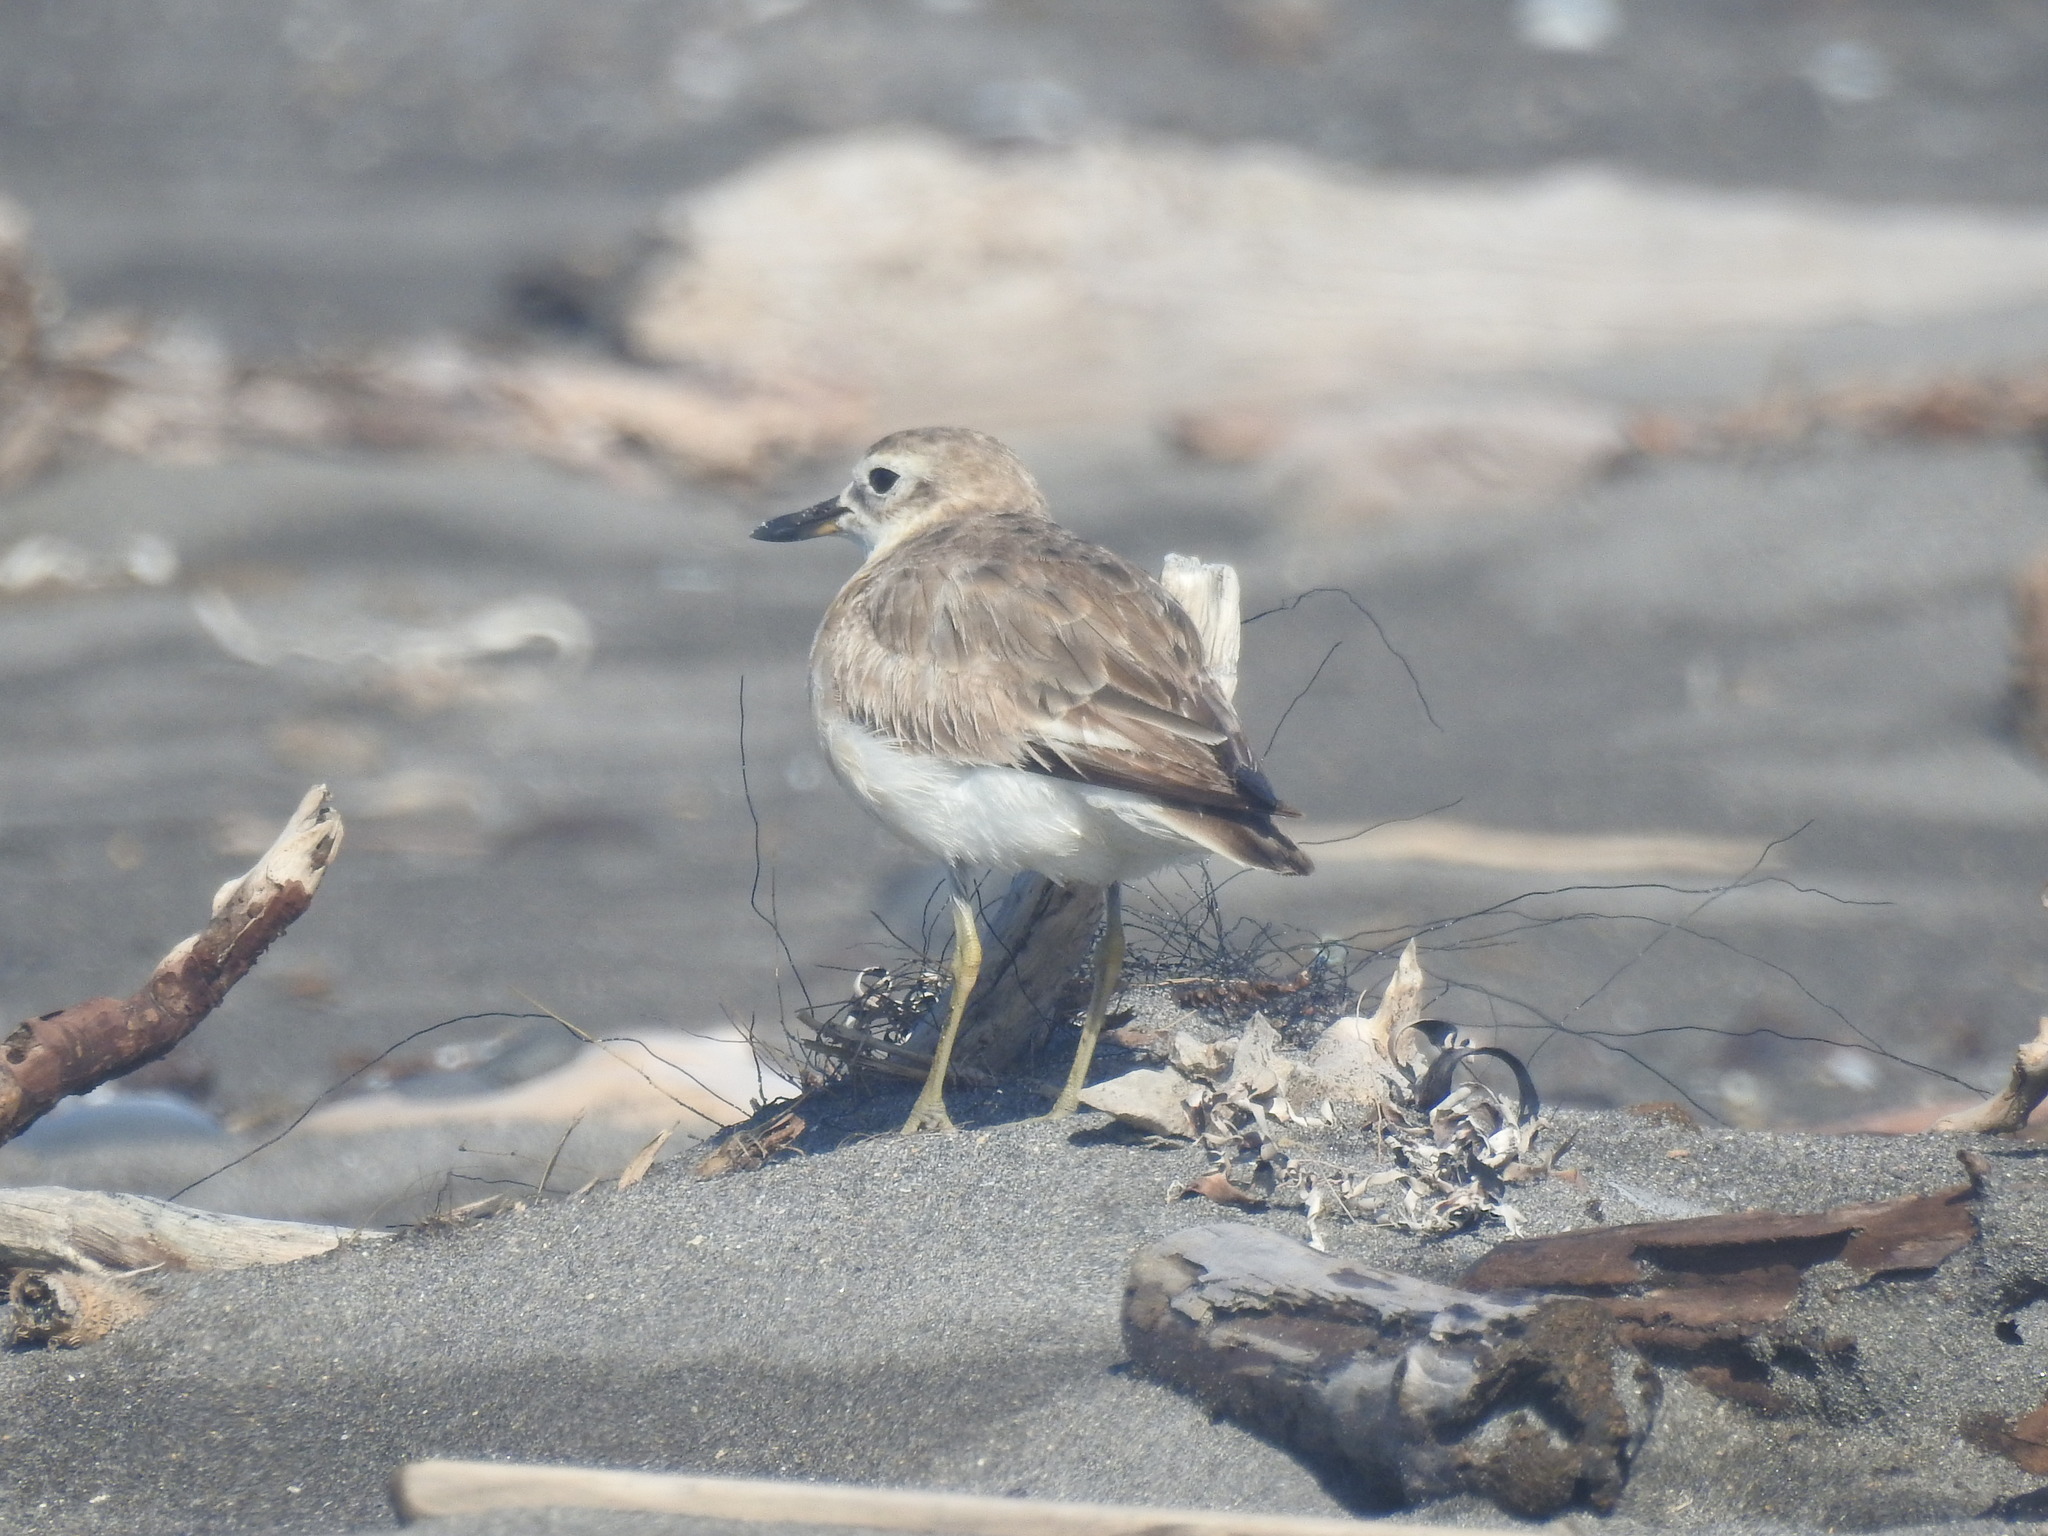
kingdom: Animalia
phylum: Chordata
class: Aves
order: Charadriiformes
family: Charadriidae
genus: Anarhynchus
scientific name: Anarhynchus
